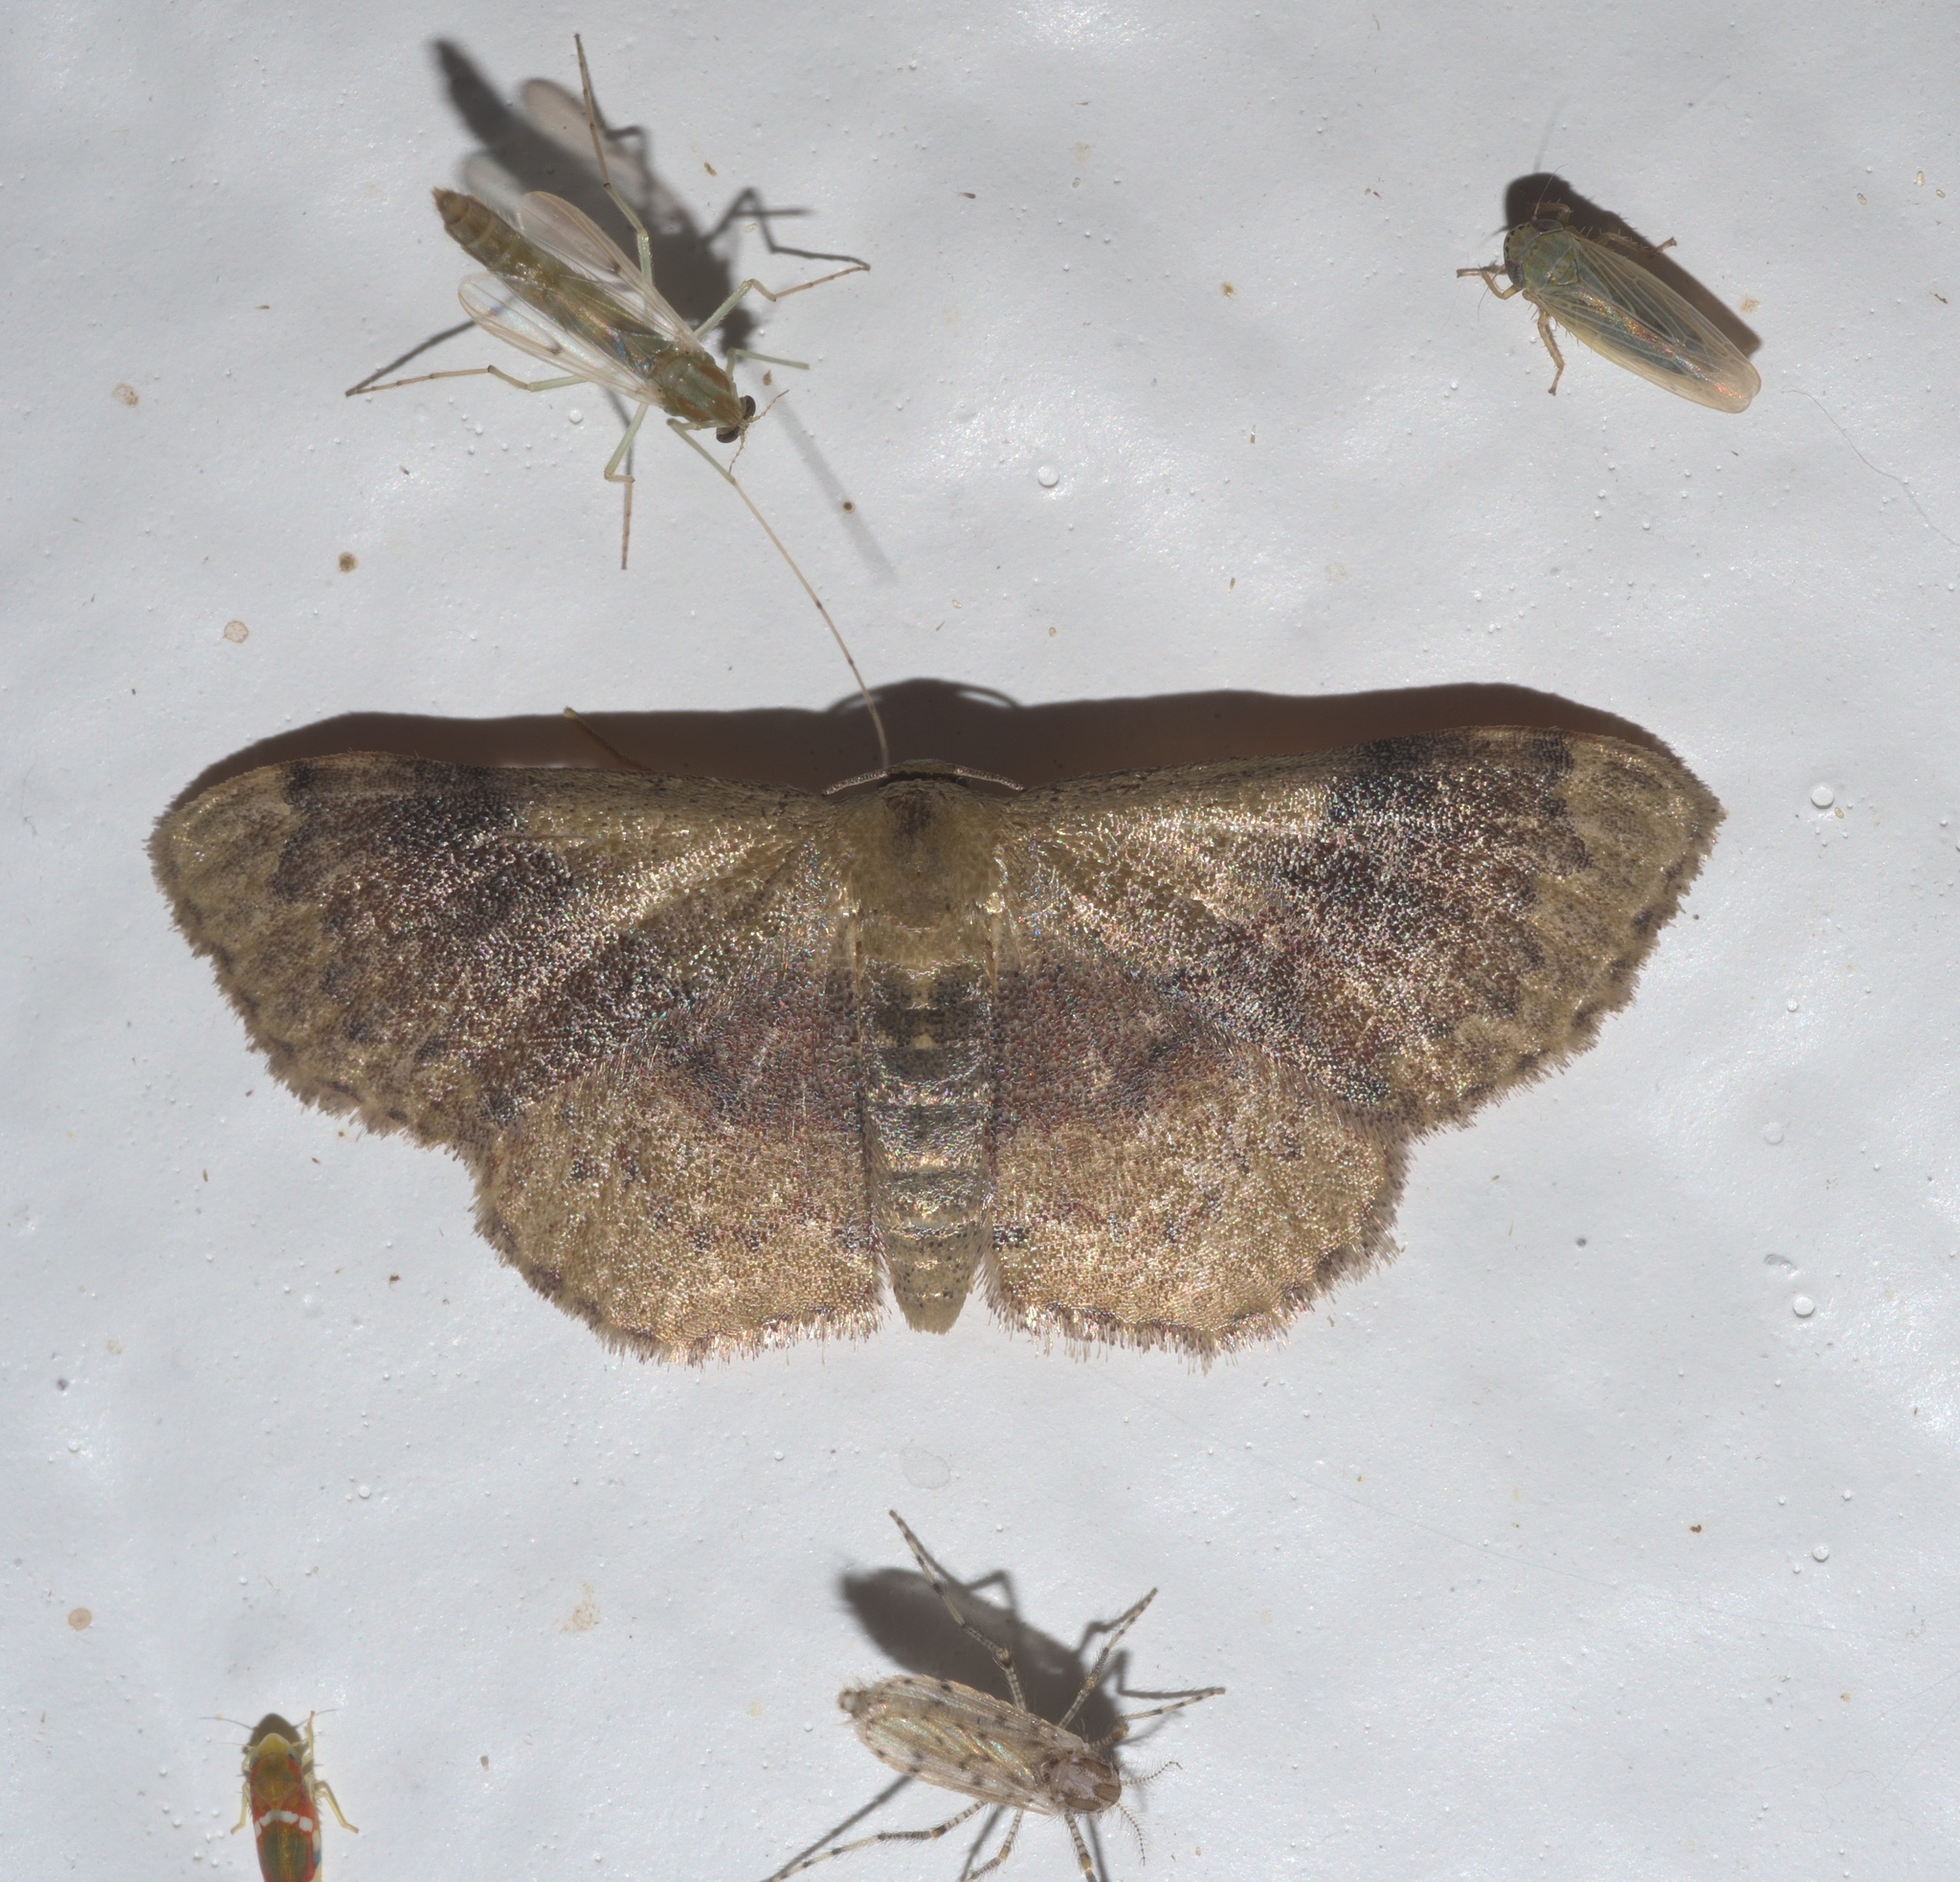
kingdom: Animalia
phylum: Arthropoda
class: Insecta
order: Lepidoptera
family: Geometridae
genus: Leptostales
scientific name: Leptostales ferruminaria
